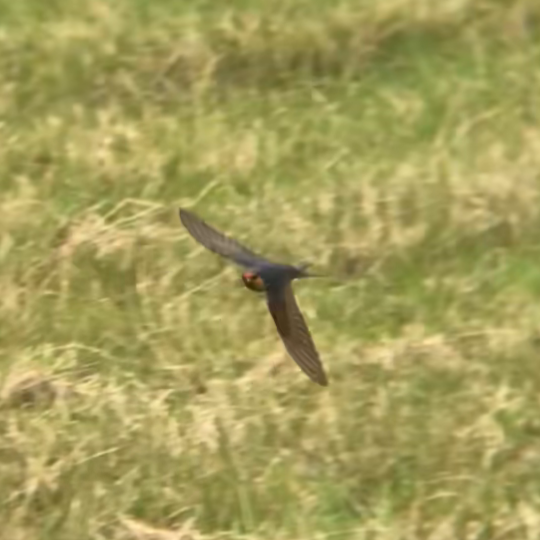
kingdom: Animalia
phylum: Chordata
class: Aves
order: Passeriformes
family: Hirundinidae
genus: Hirundo
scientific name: Hirundo neoxena
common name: Welcome swallow
